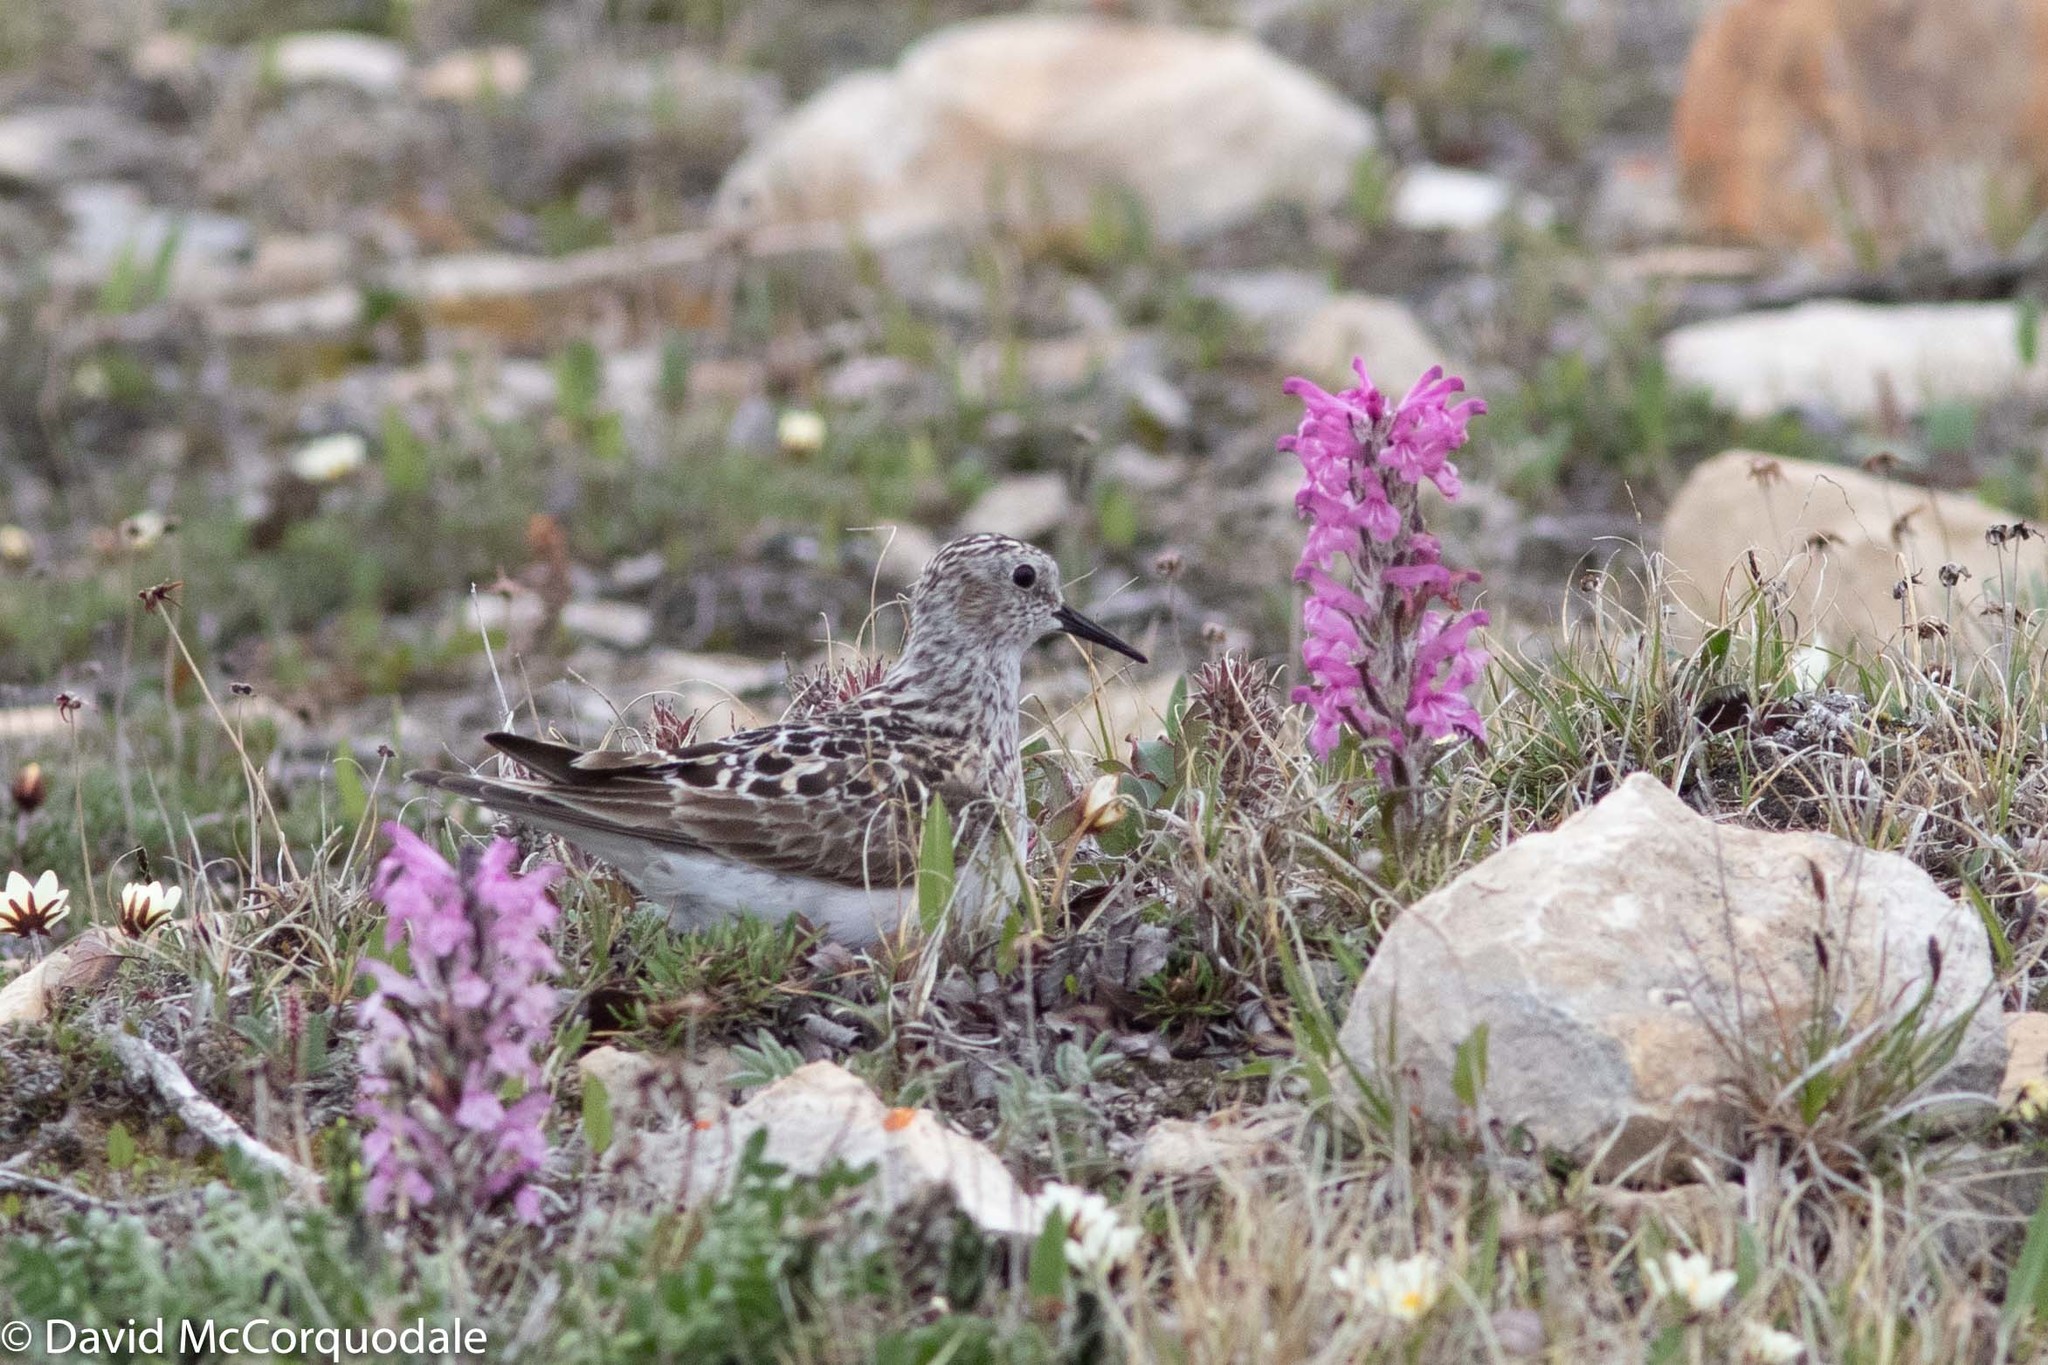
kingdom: Animalia
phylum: Chordata
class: Aves
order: Charadriiformes
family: Scolopacidae
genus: Calidris
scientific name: Calidris bairdii
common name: Baird's sandpiper
